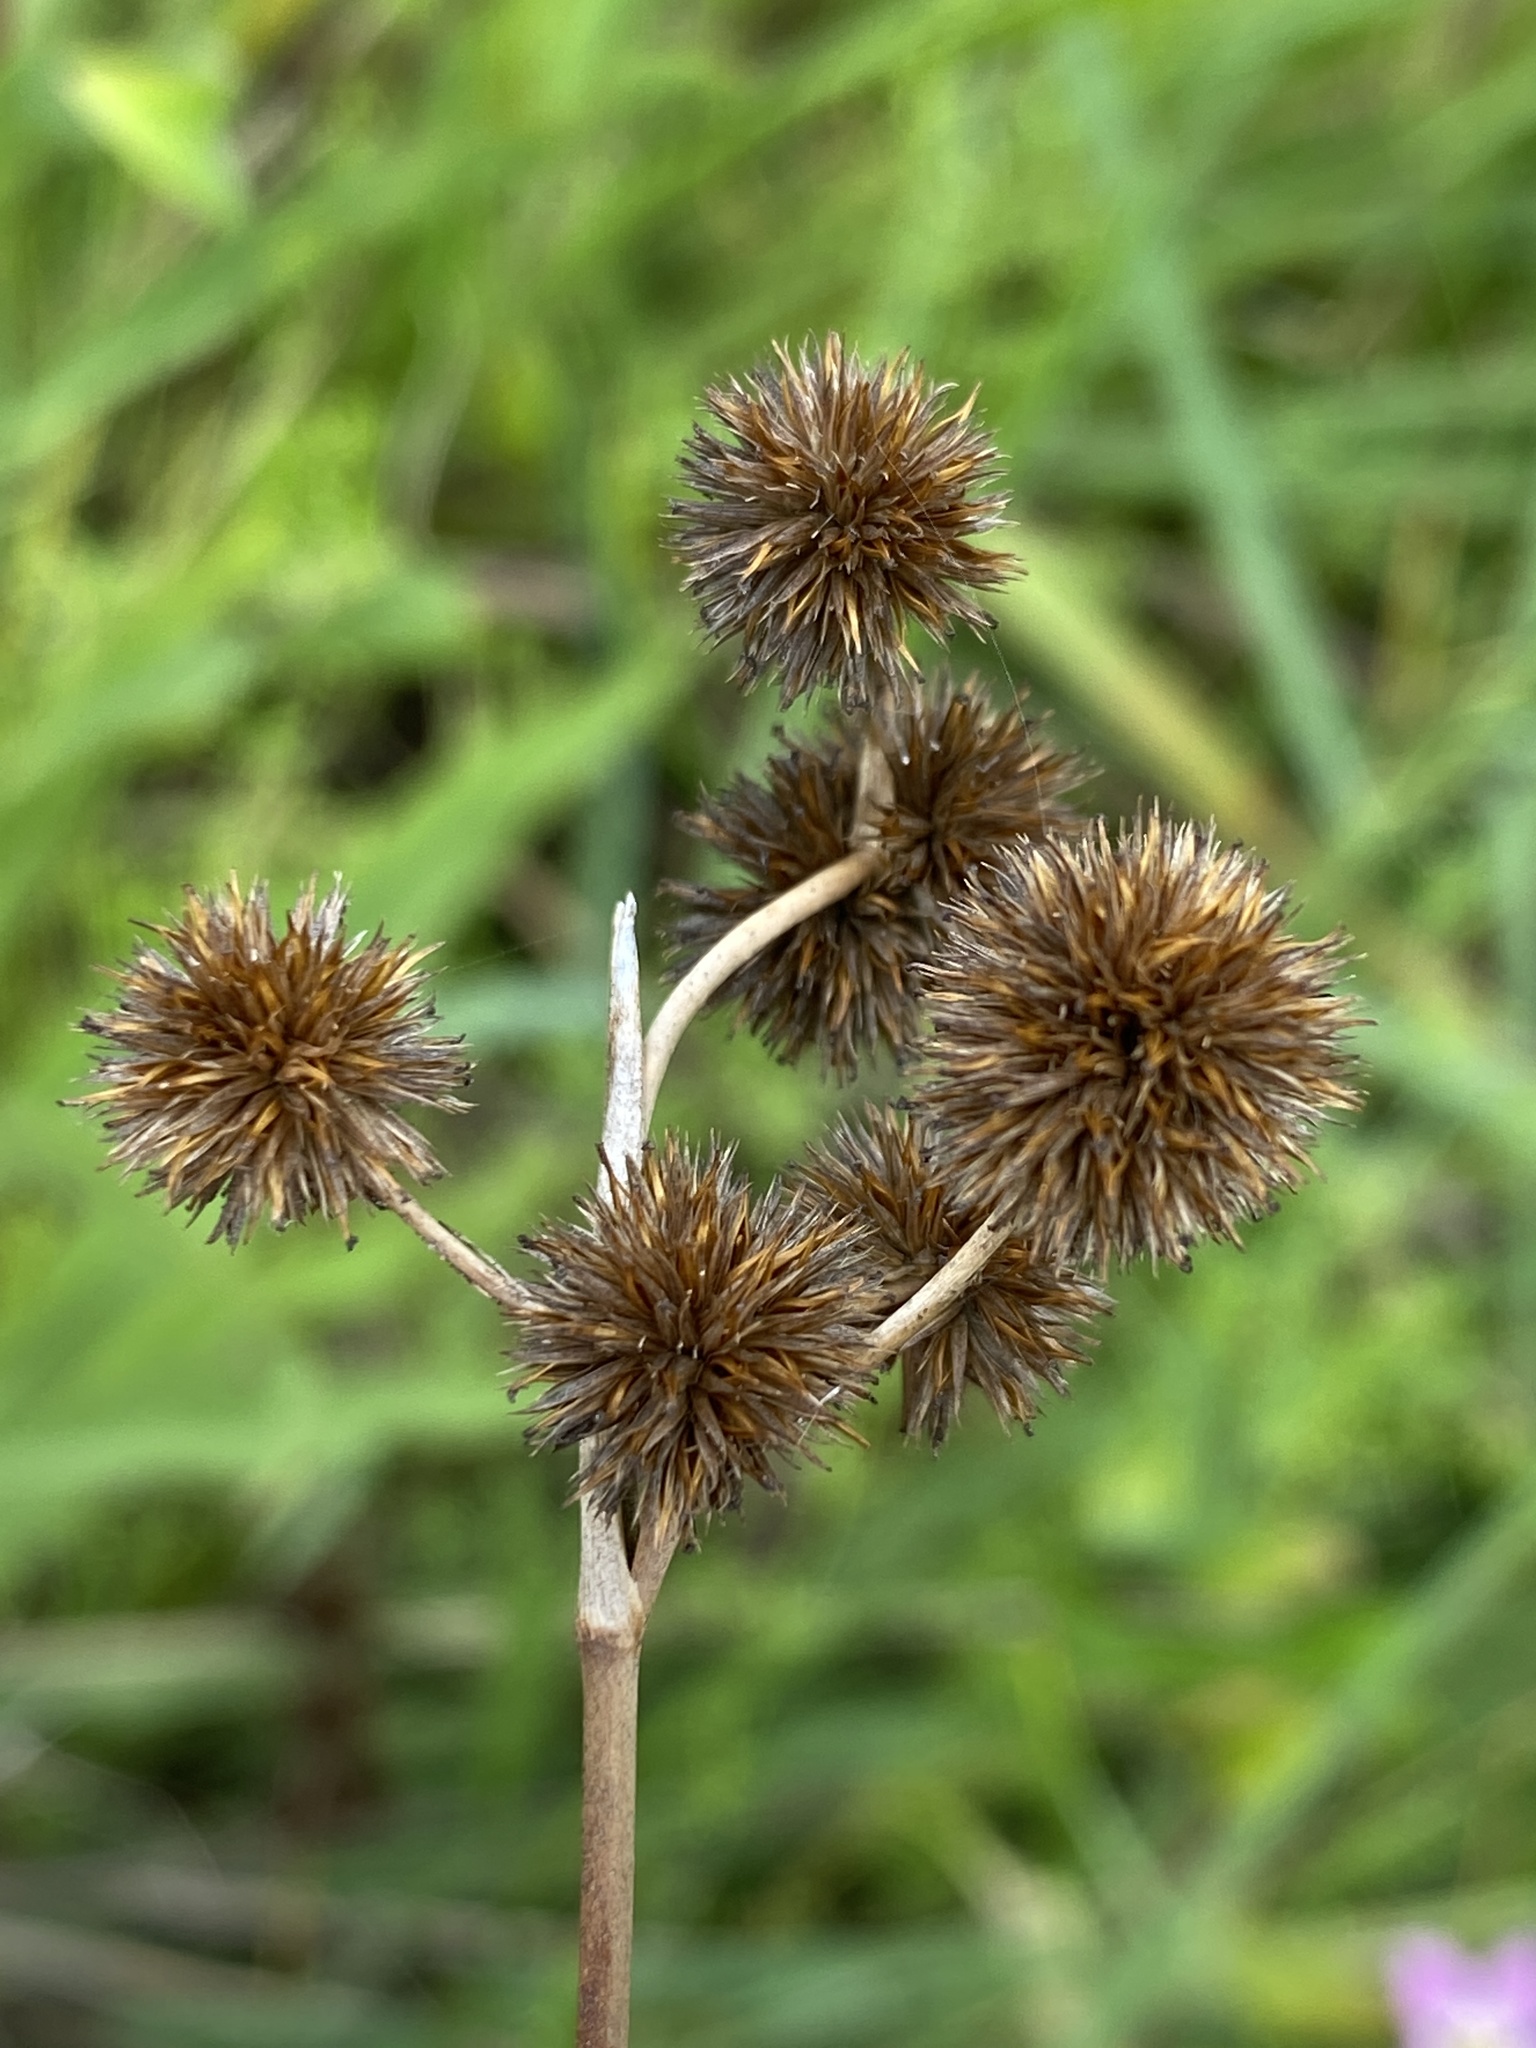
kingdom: Plantae
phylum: Tracheophyta
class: Liliopsida
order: Poales
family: Juncaceae
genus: Juncus
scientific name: Juncus megacephalus
